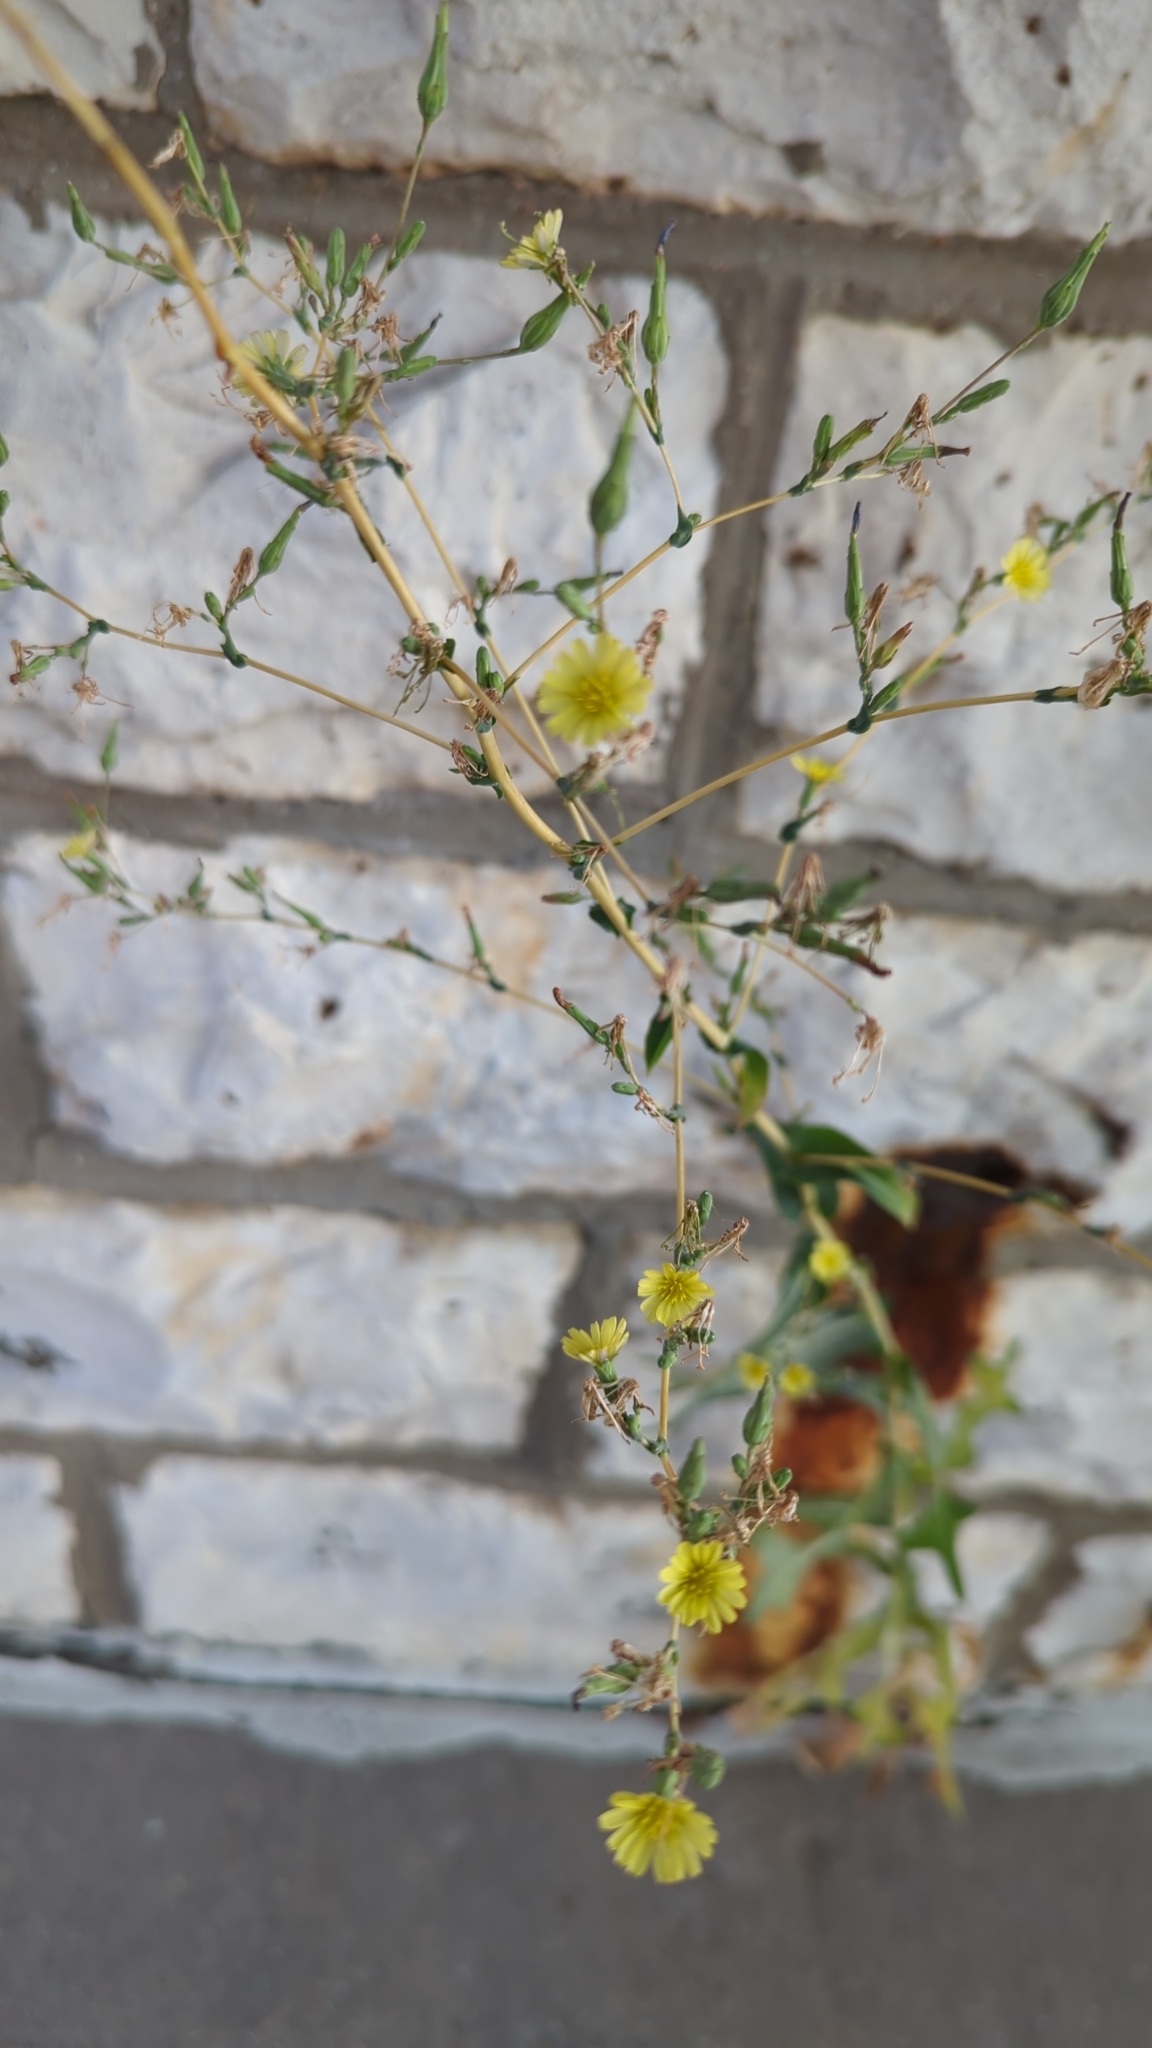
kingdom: Plantae
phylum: Tracheophyta
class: Magnoliopsida
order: Asterales
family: Asteraceae
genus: Lactuca
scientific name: Lactuca serriola
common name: Prickly lettuce
